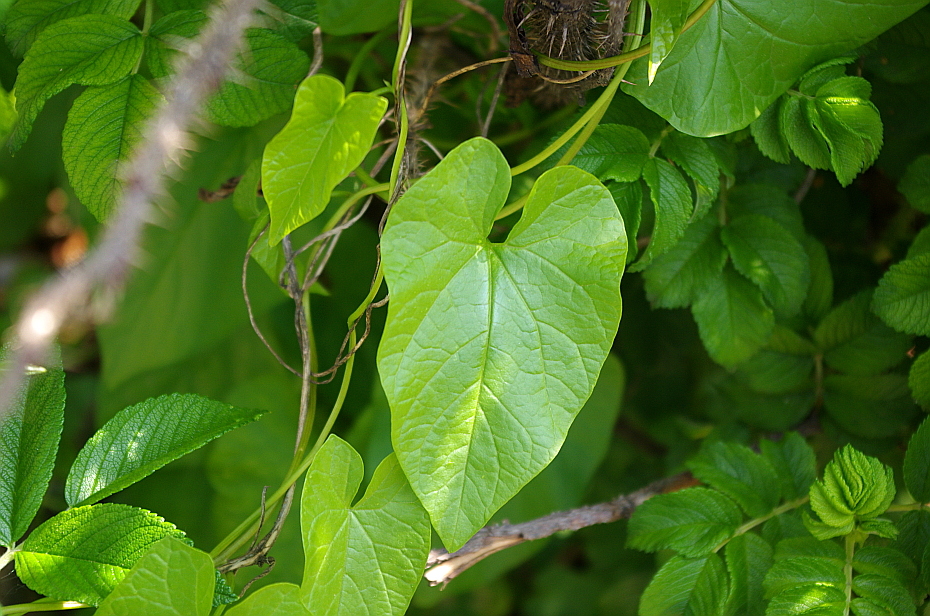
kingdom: Plantae
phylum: Tracheophyta
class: Magnoliopsida
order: Solanales
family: Convolvulaceae
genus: Calystegia
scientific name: Calystegia sepium
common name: Hedge bindweed
